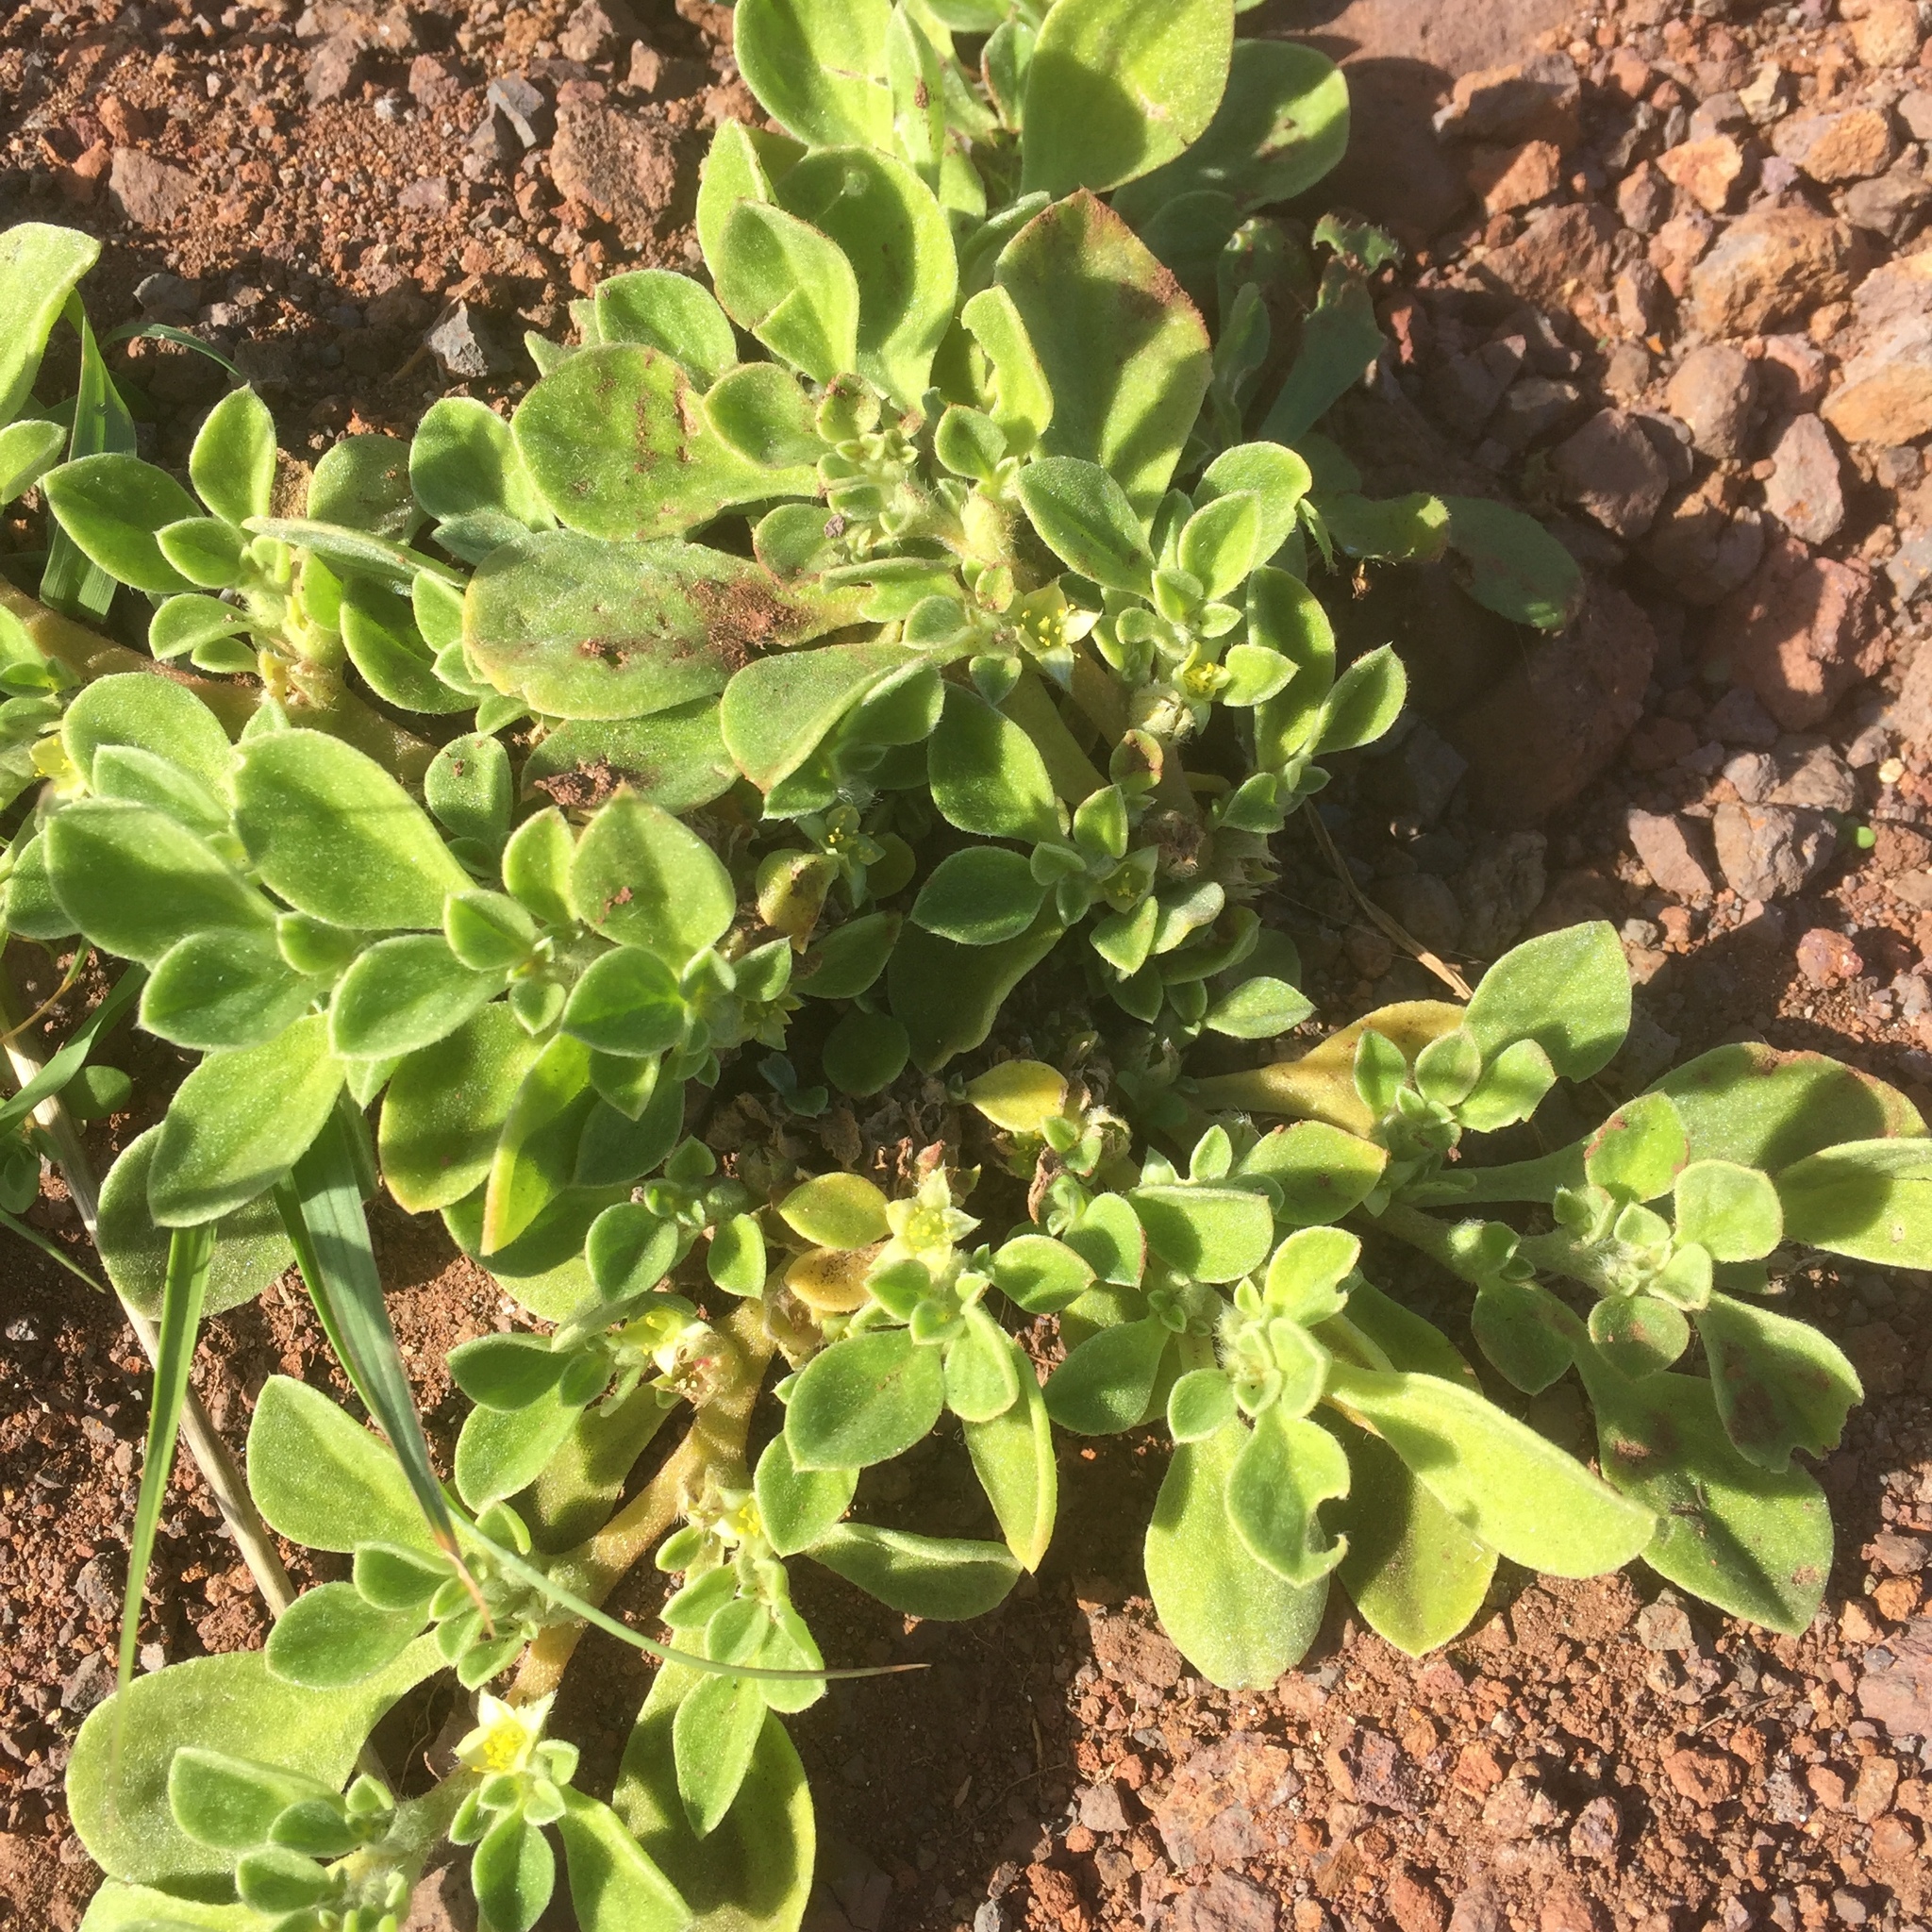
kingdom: Plantae
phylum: Tracheophyta
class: Magnoliopsida
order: Caryophyllales
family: Aizoaceae
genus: Aizoon
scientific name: Aizoon canariense
